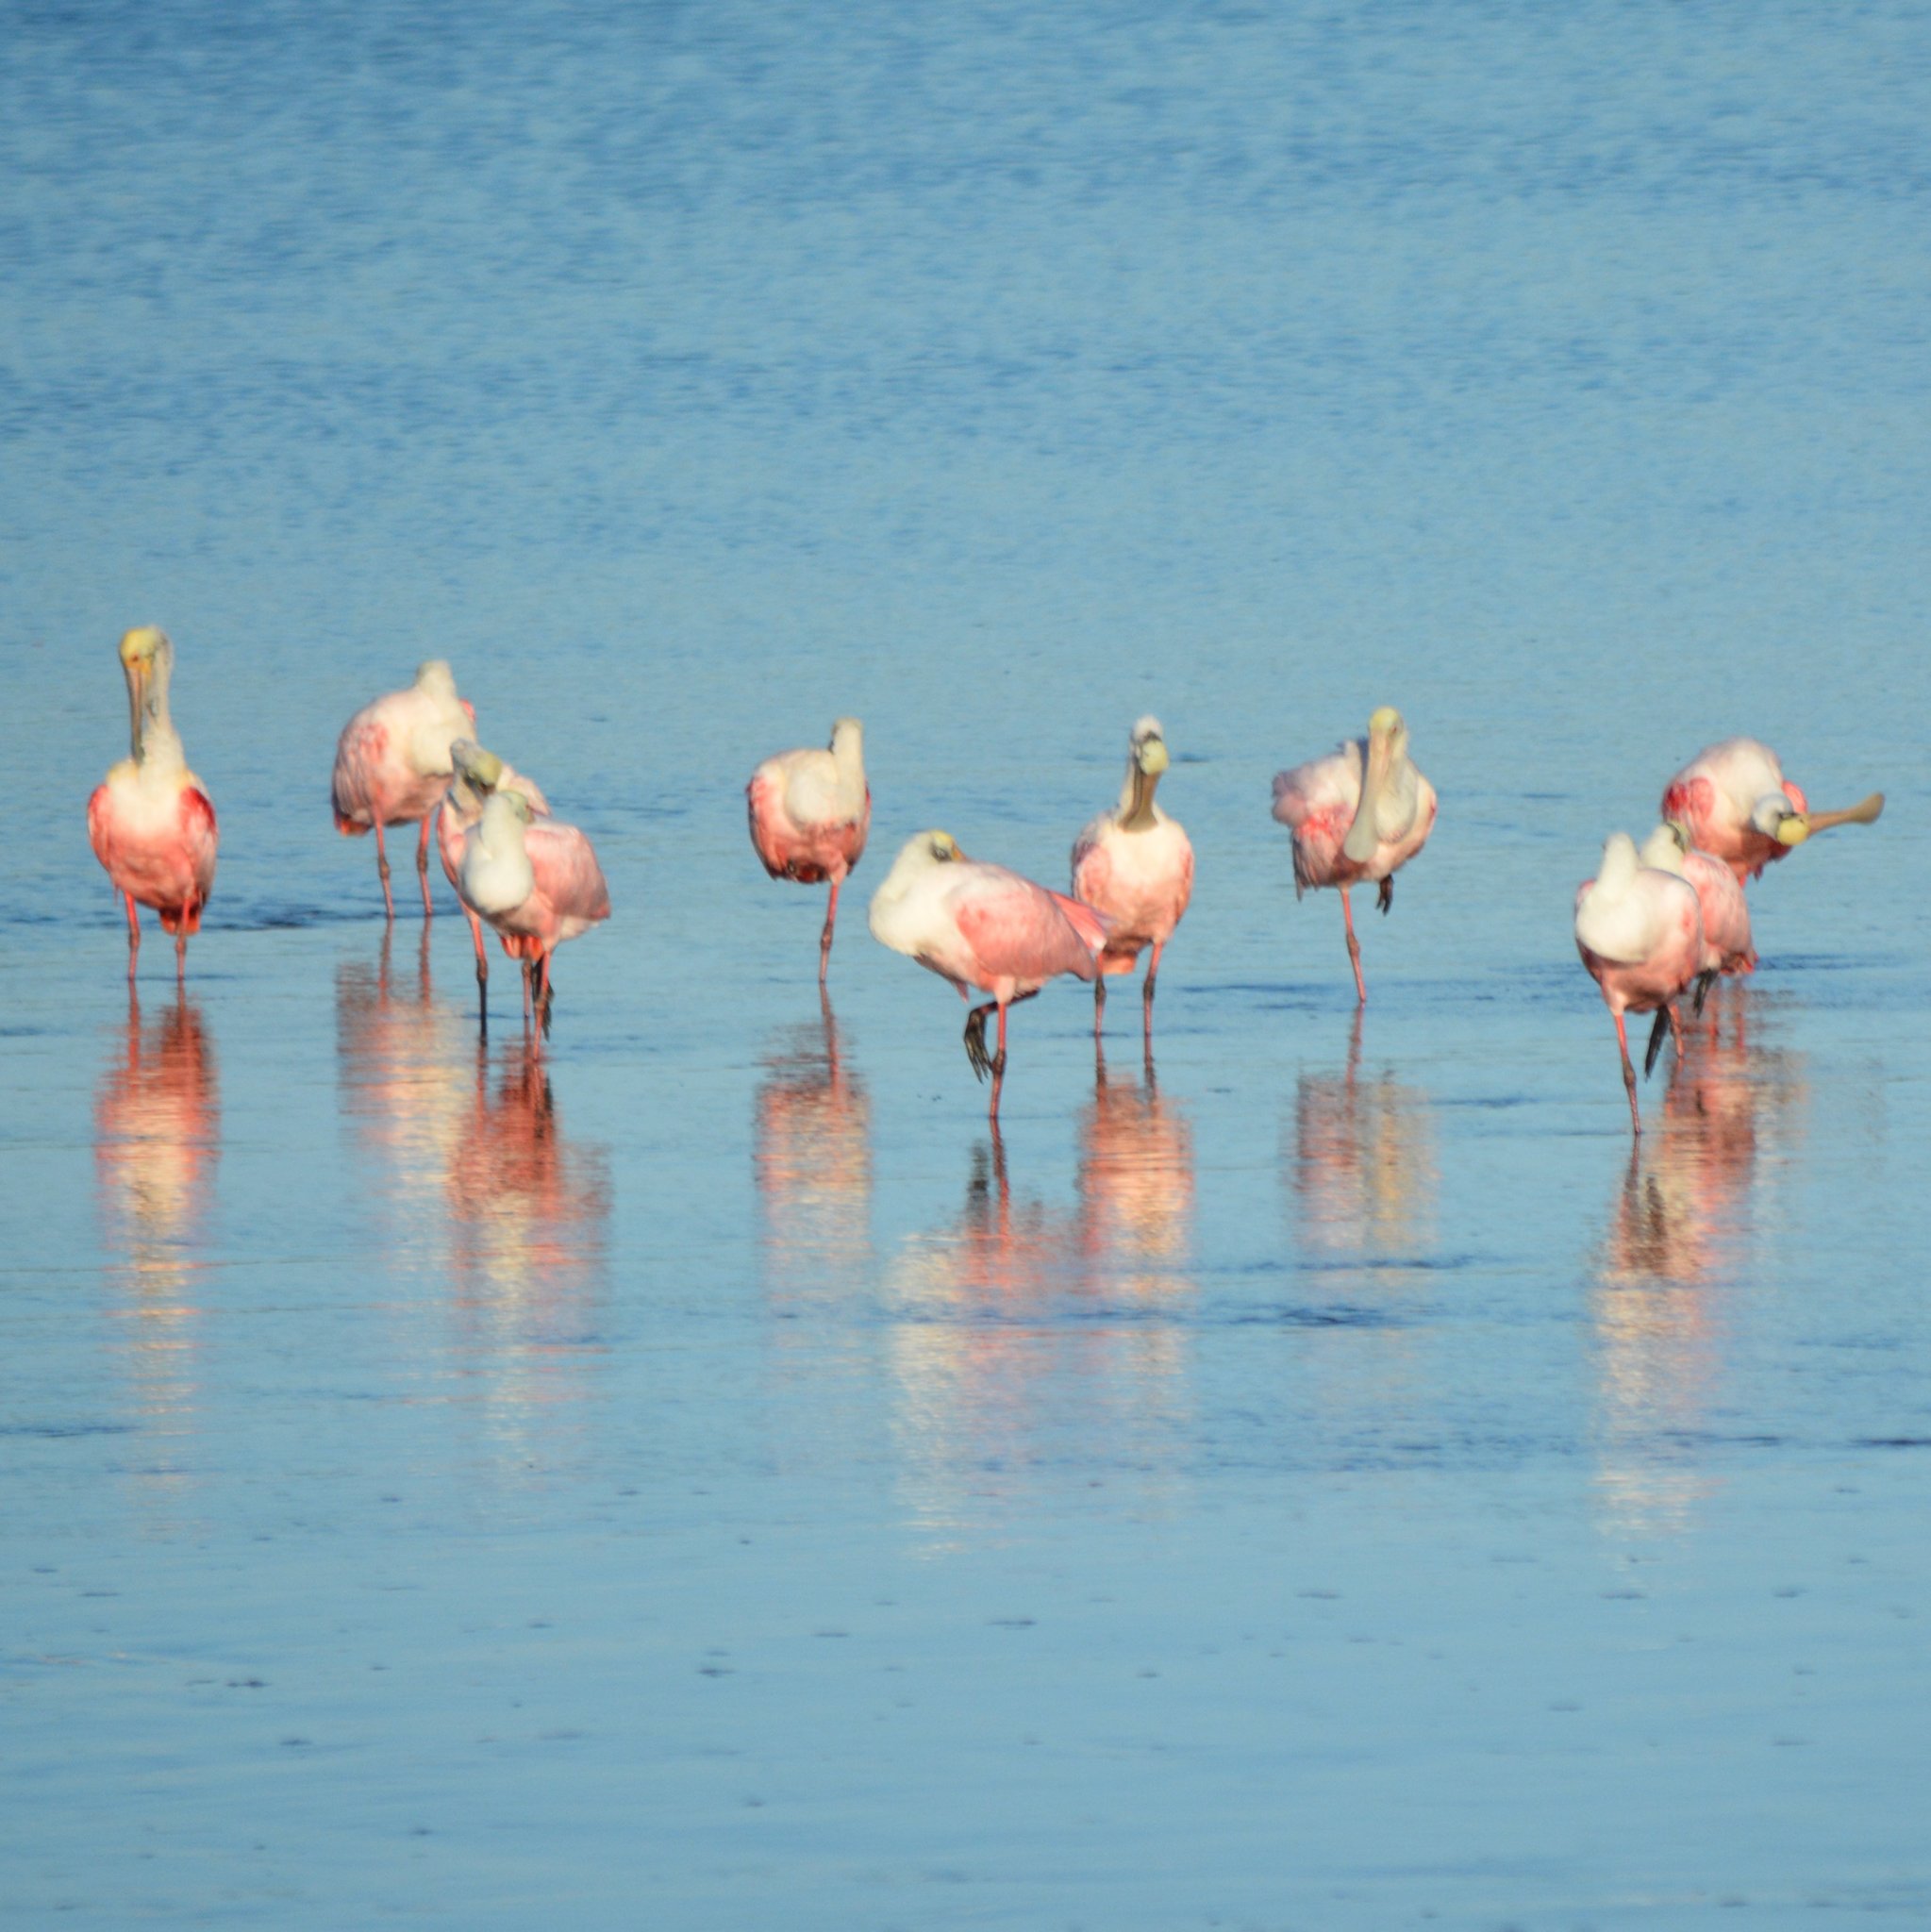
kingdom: Animalia
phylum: Chordata
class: Aves
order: Pelecaniformes
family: Threskiornithidae
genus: Platalea
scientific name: Platalea ajaja
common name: Roseate spoonbill
